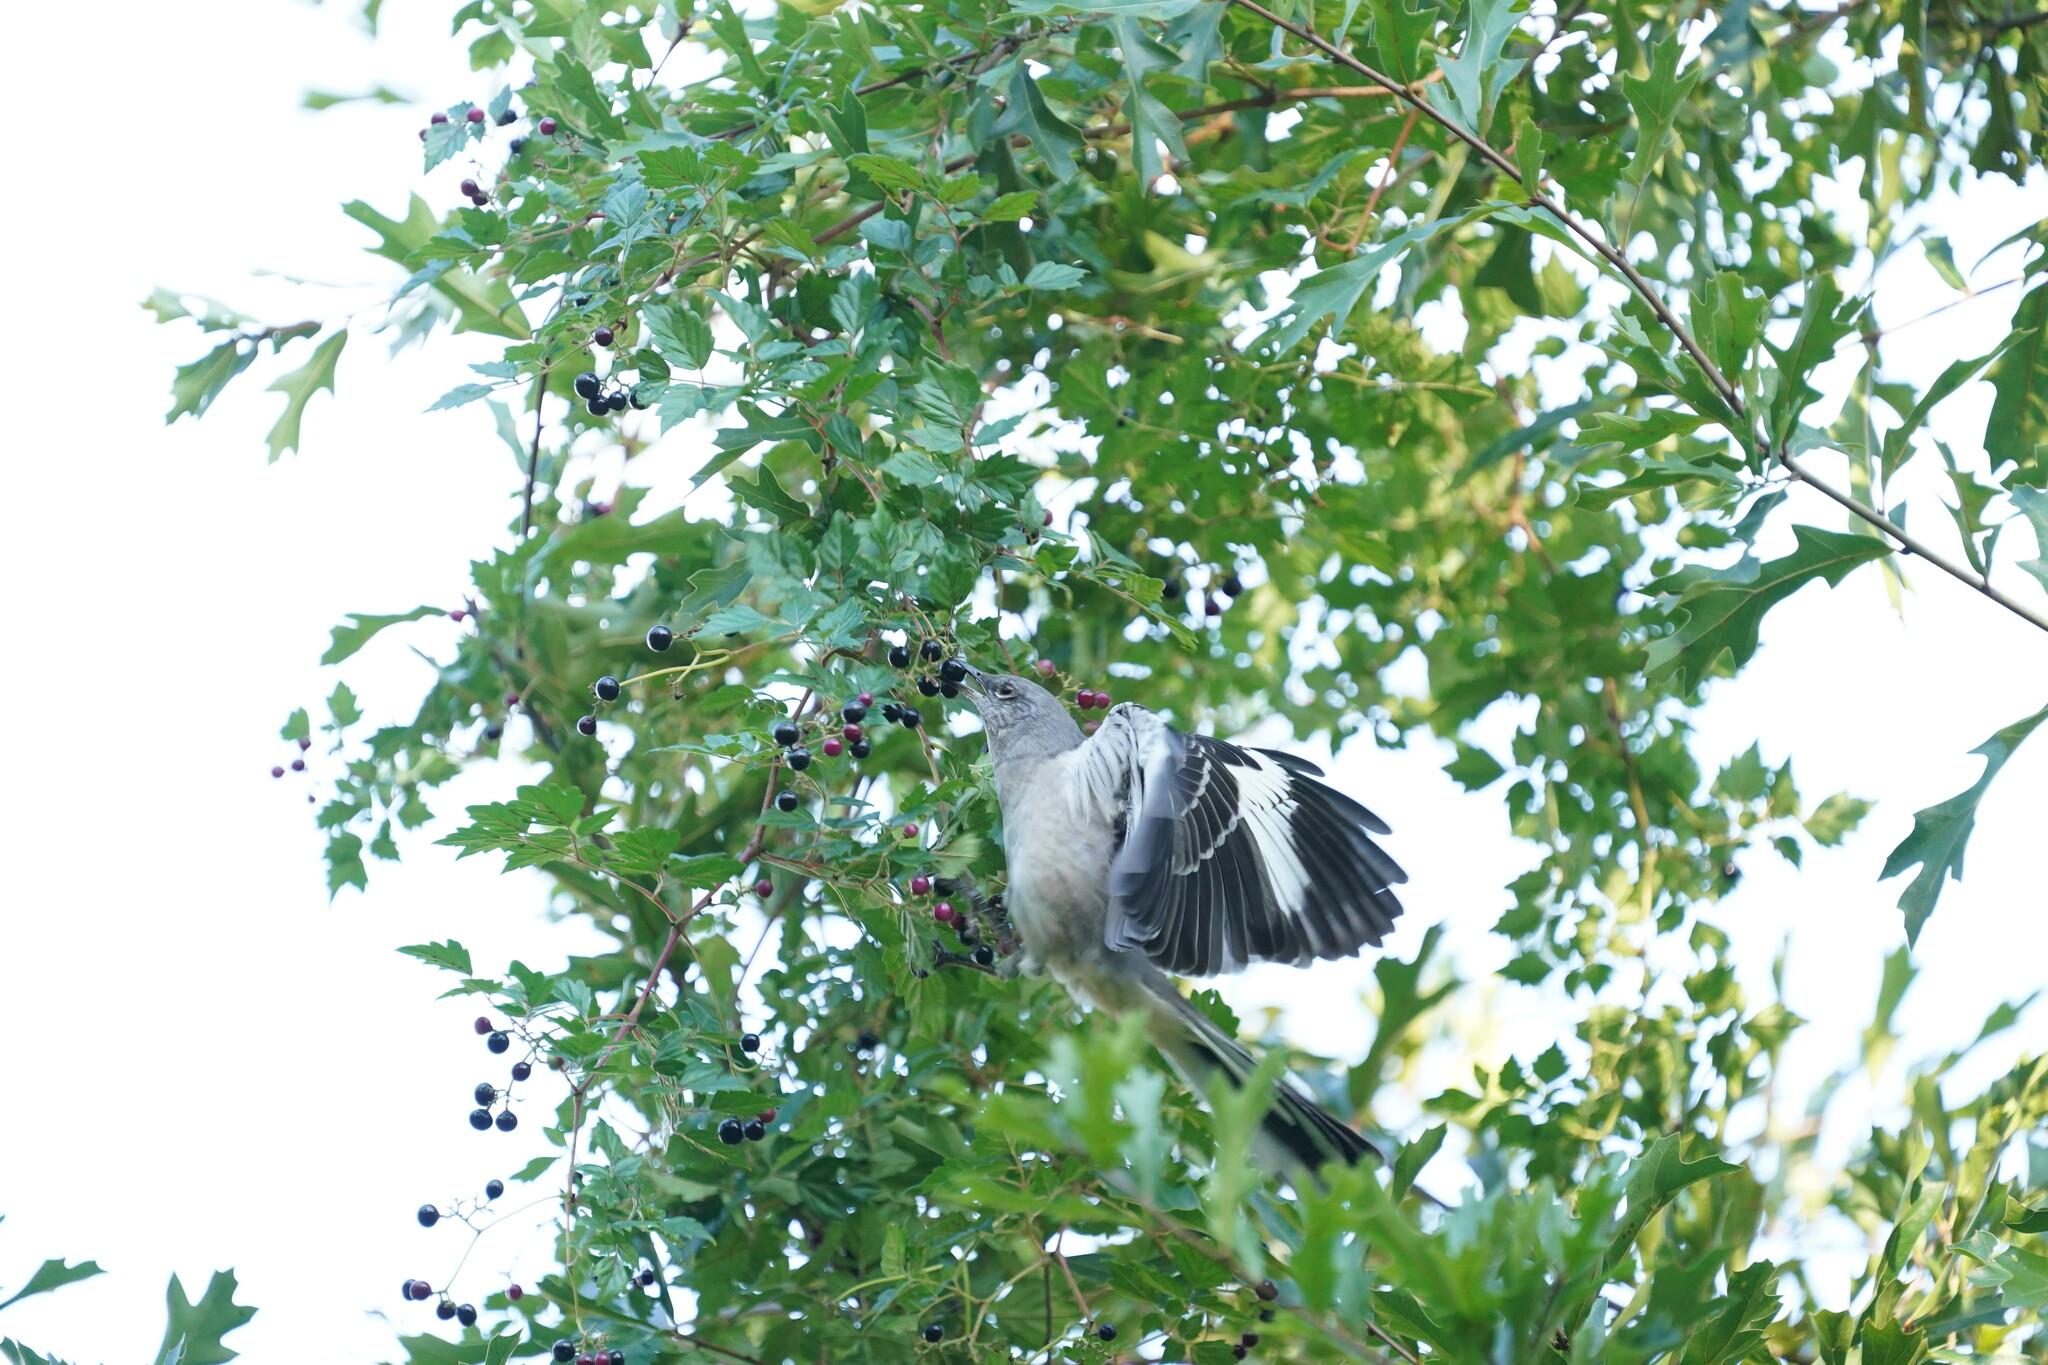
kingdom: Animalia
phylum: Chordata
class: Aves
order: Passeriformes
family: Mimidae
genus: Mimus
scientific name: Mimus polyglottos
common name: Northern mockingbird
